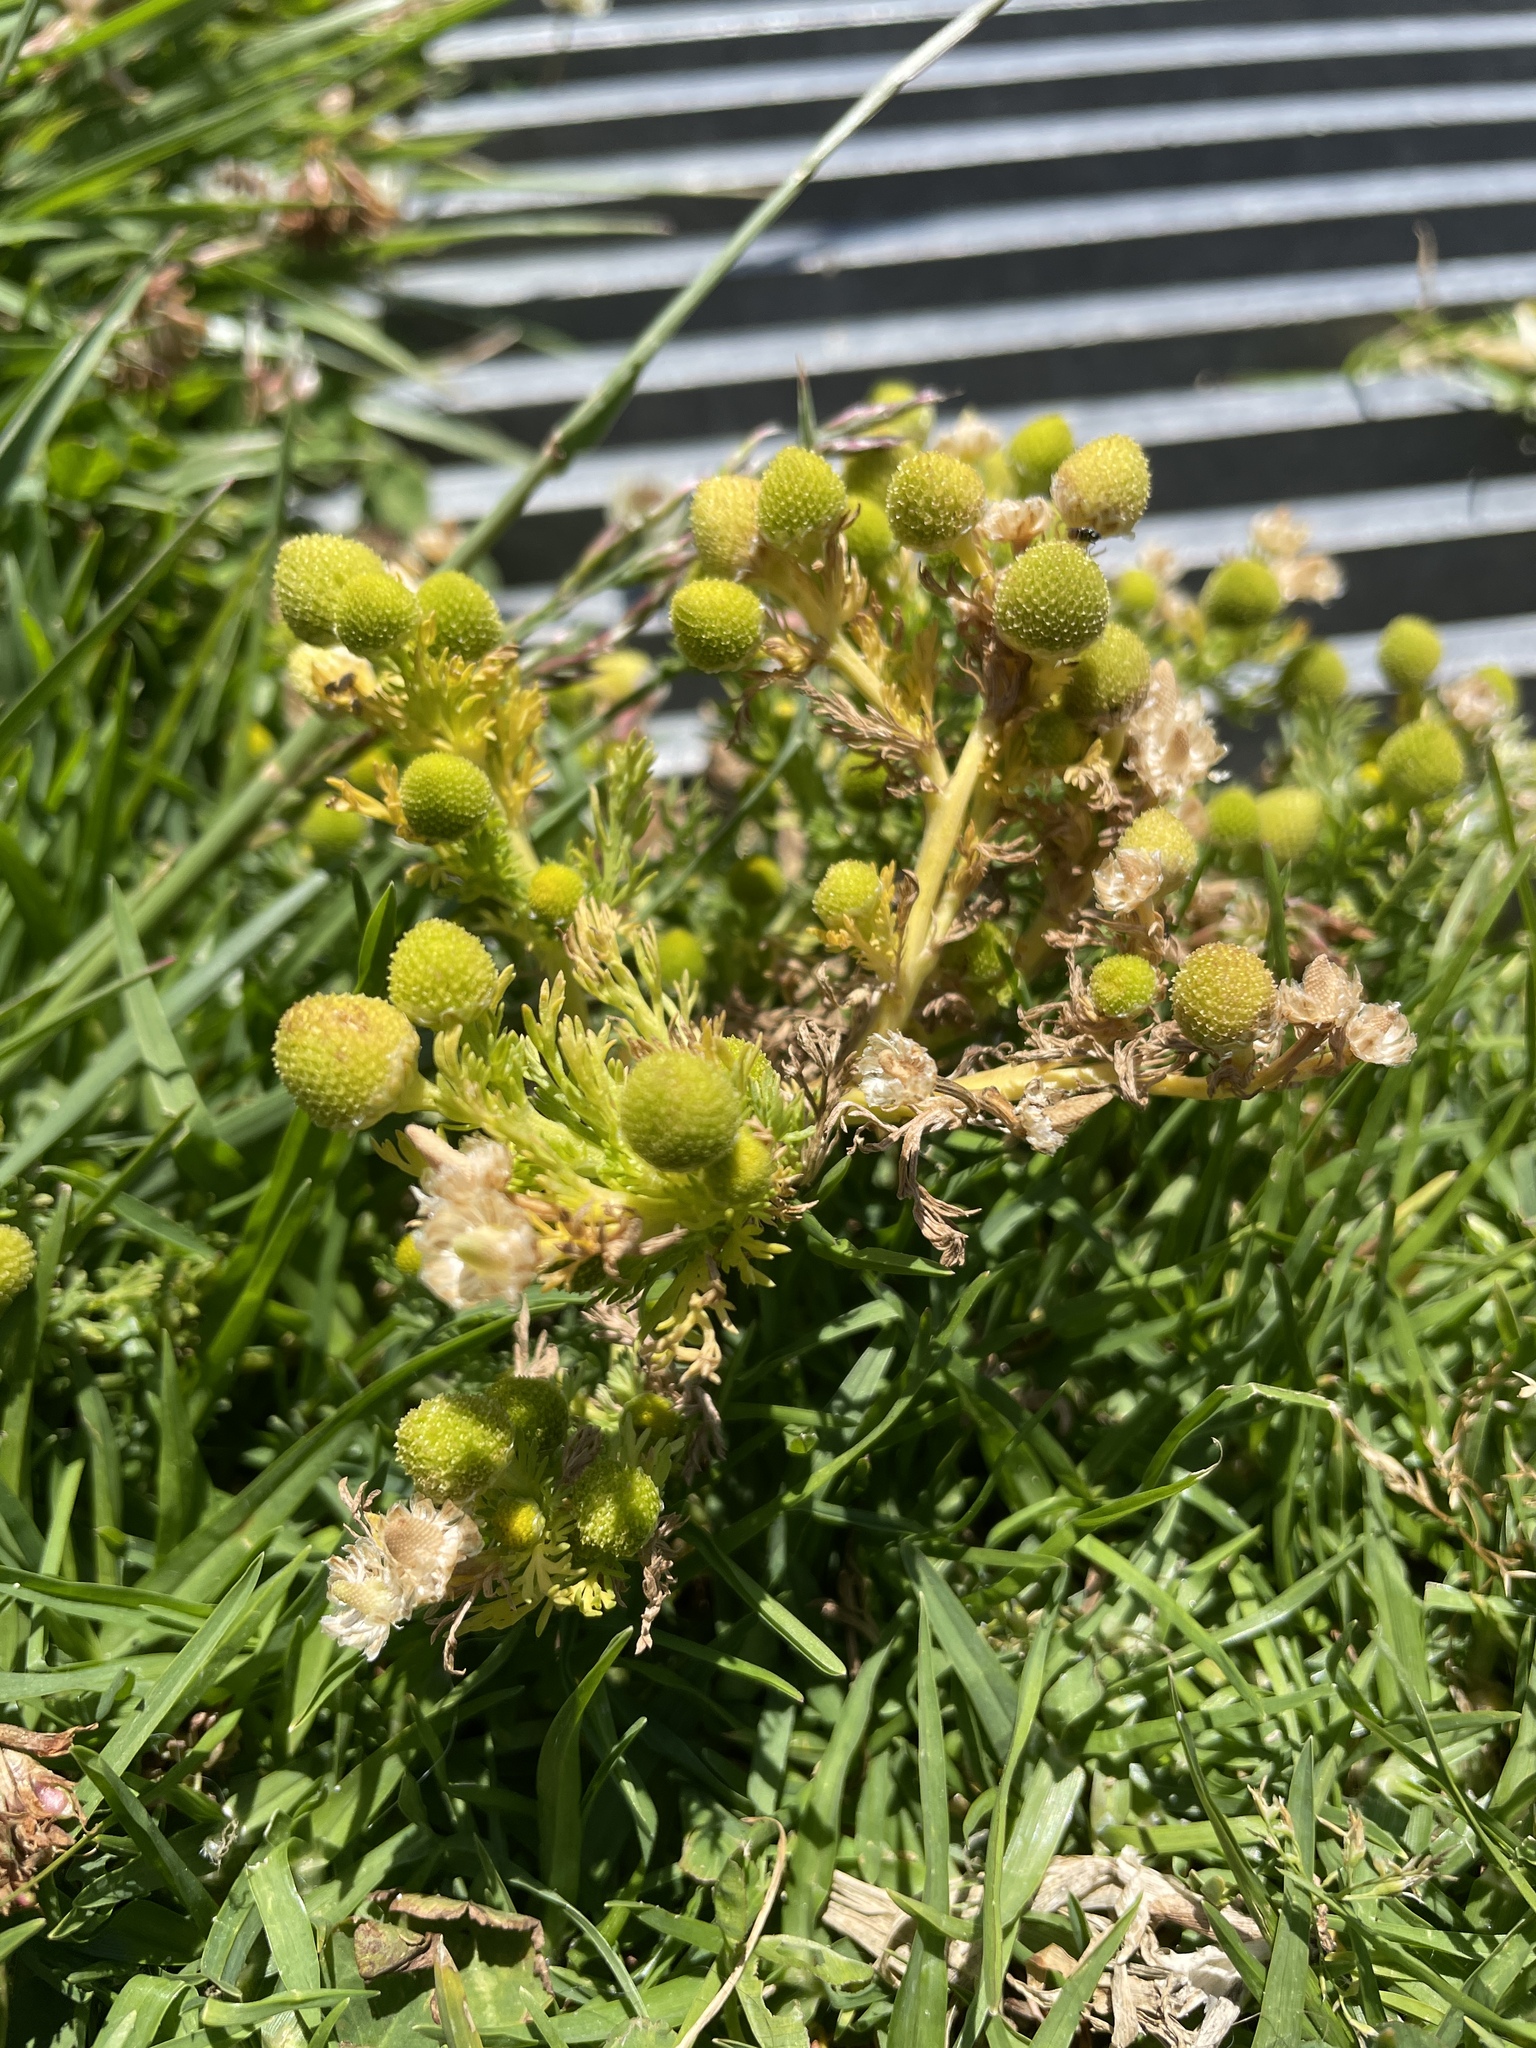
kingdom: Plantae
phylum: Tracheophyta
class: Magnoliopsida
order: Asterales
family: Asteraceae
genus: Matricaria
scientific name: Matricaria discoidea
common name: Disc mayweed
